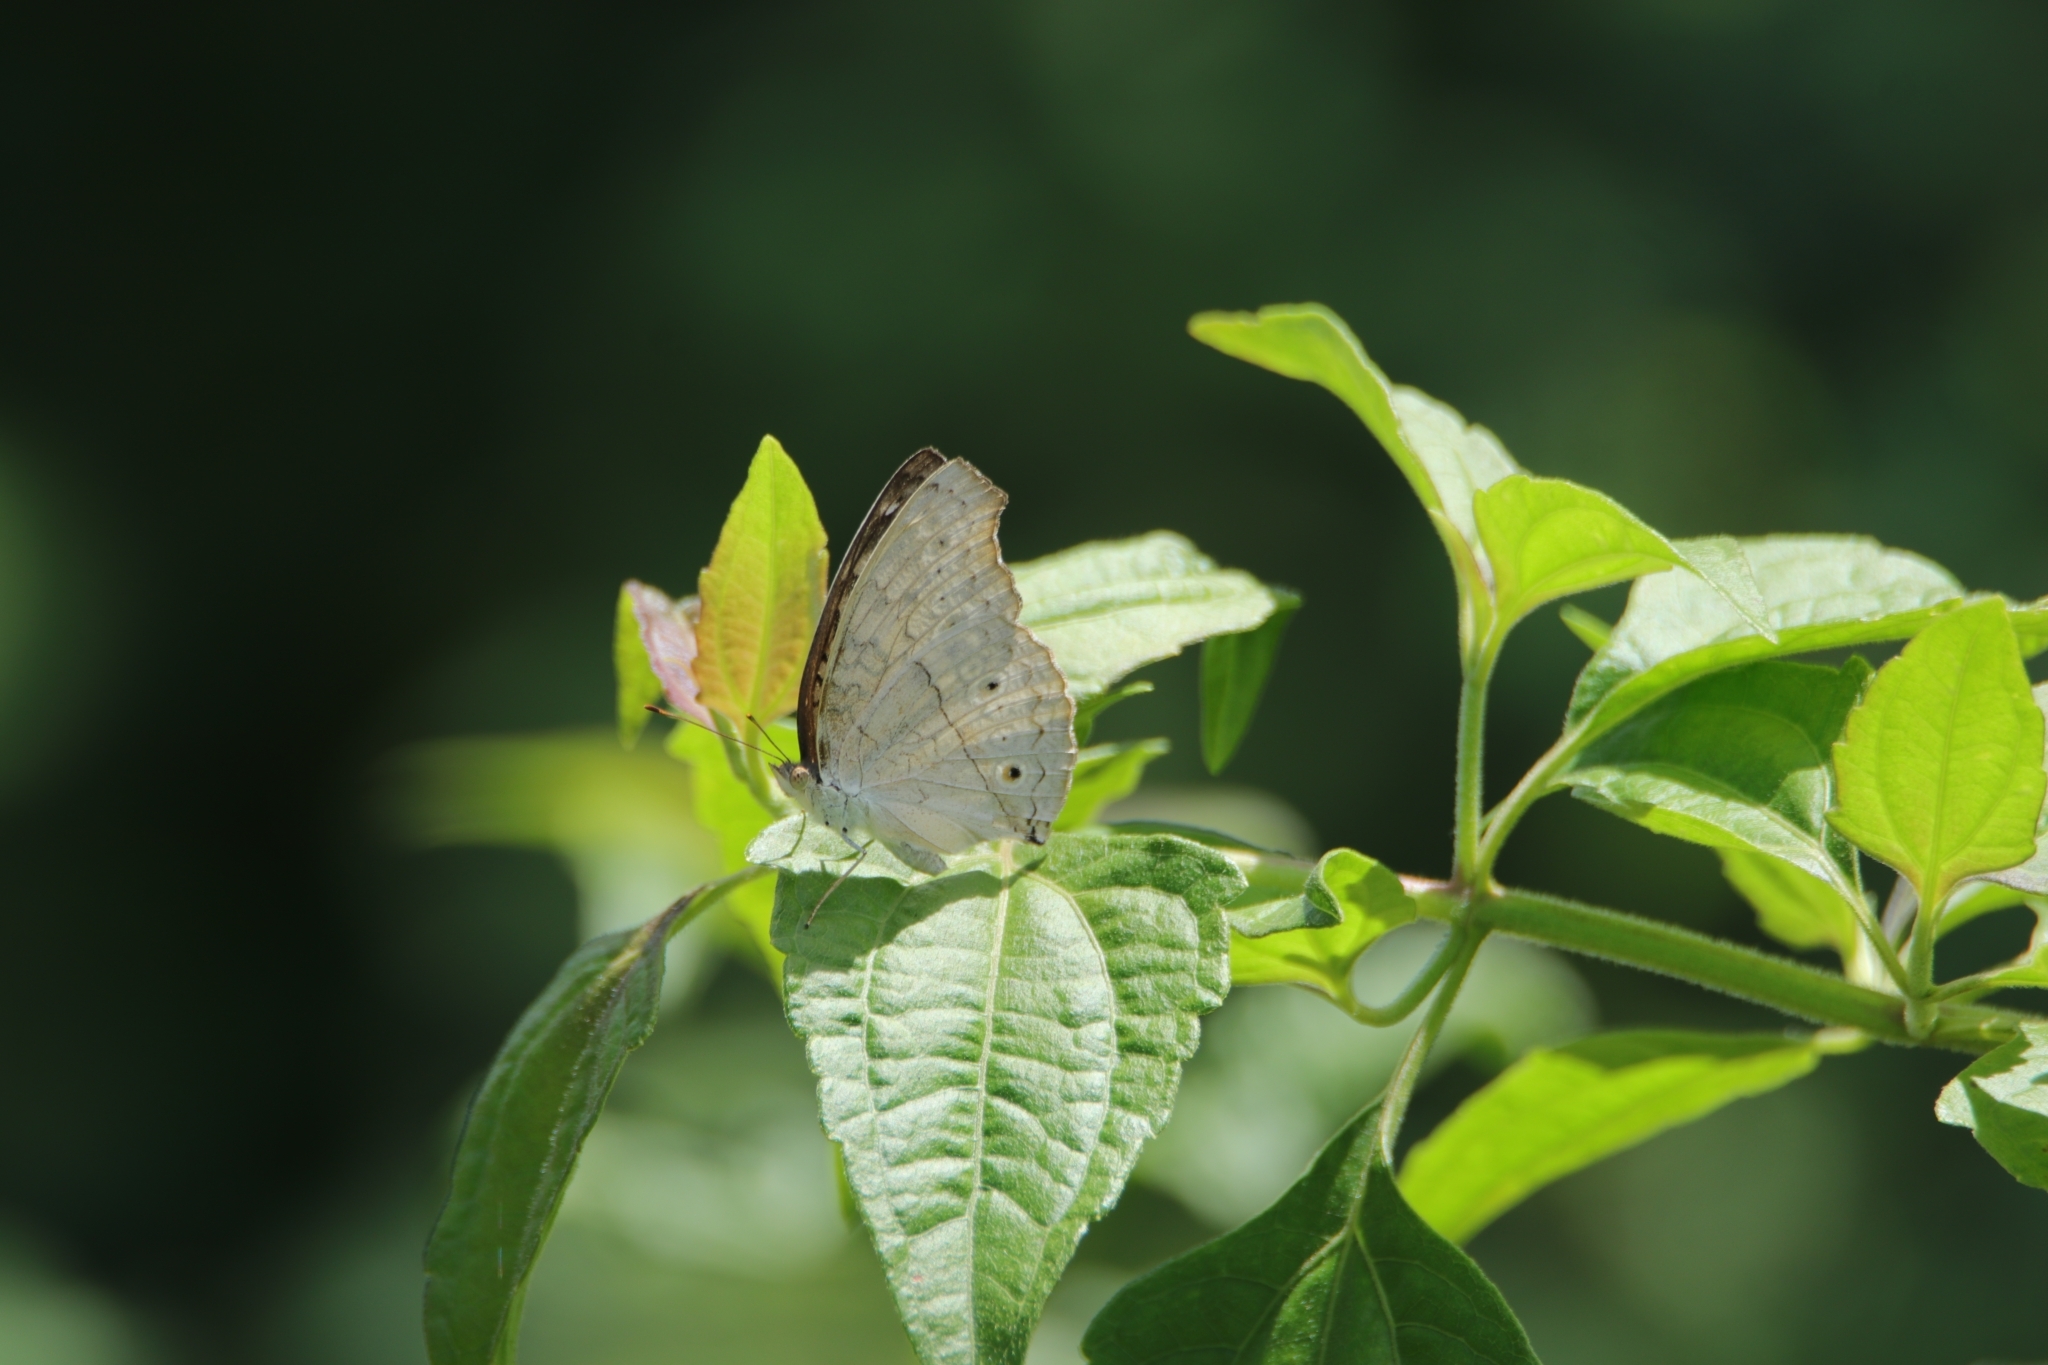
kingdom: Animalia
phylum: Arthropoda
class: Insecta
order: Lepidoptera
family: Nymphalidae
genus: Junonia
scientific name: Junonia atlites
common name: Grey pansy
